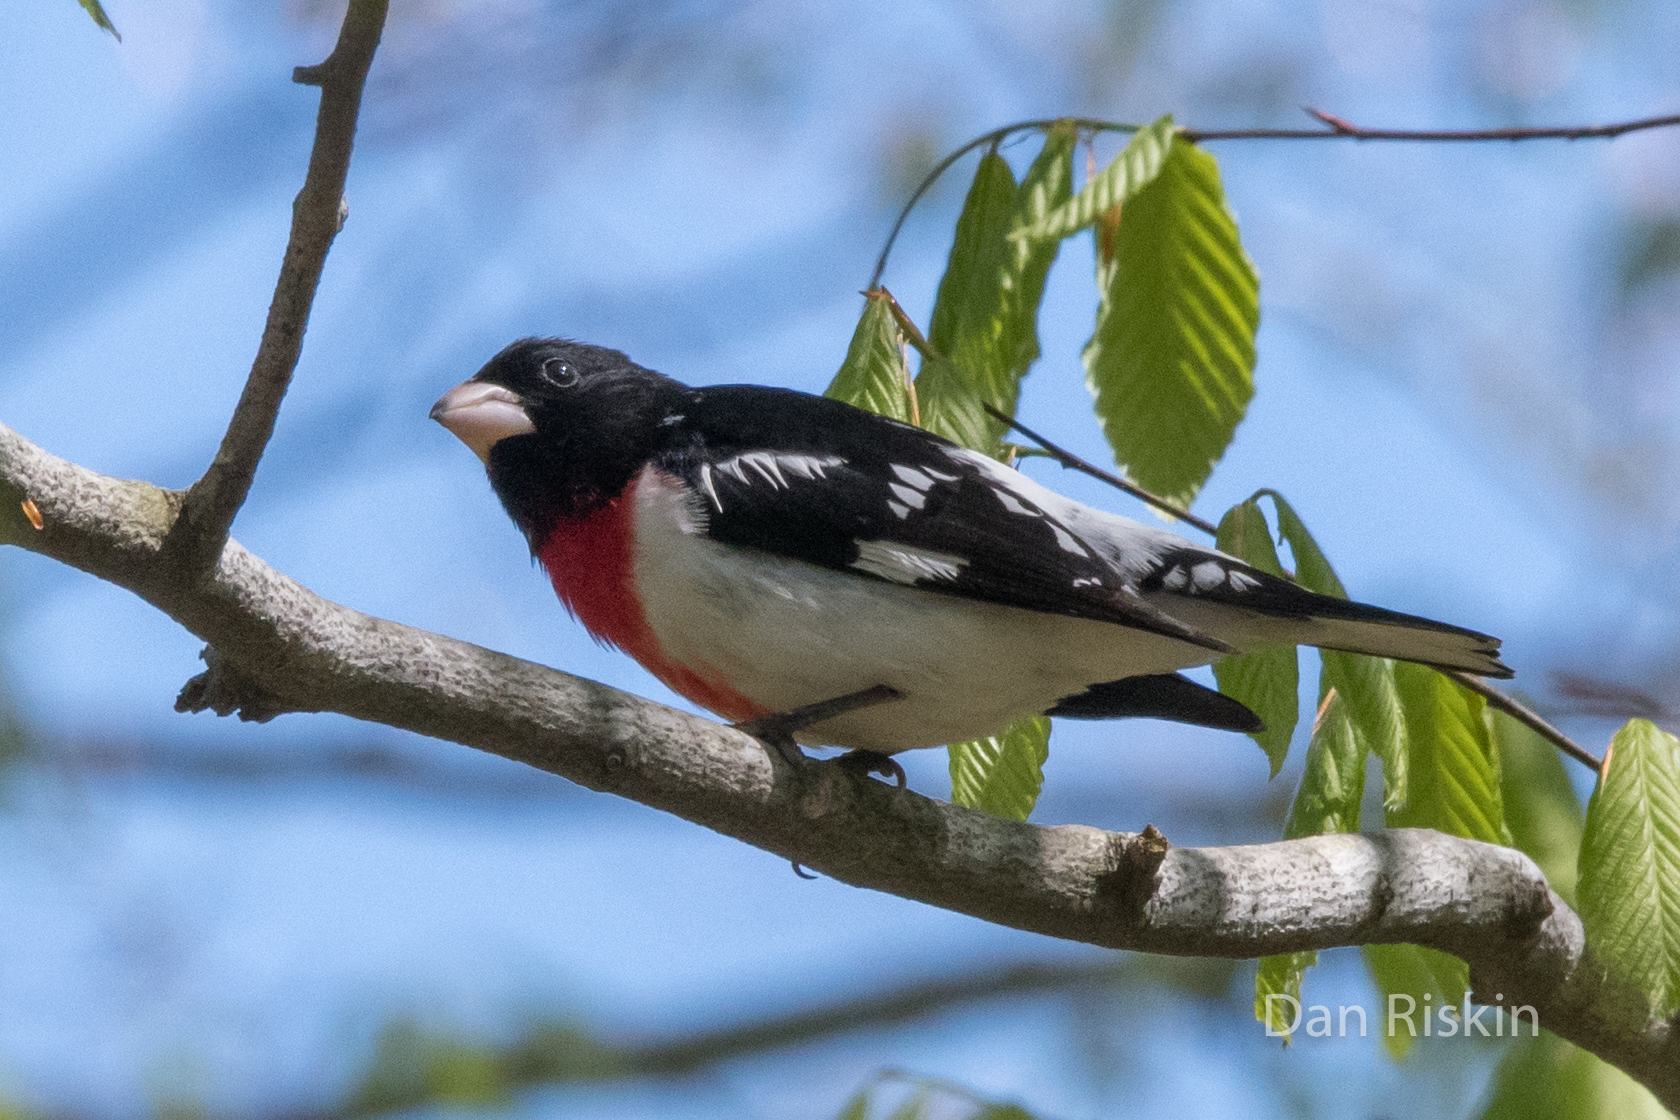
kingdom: Animalia
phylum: Chordata
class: Aves
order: Passeriformes
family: Cardinalidae
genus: Pheucticus
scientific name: Pheucticus ludovicianus
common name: Rose-breasted grosbeak
